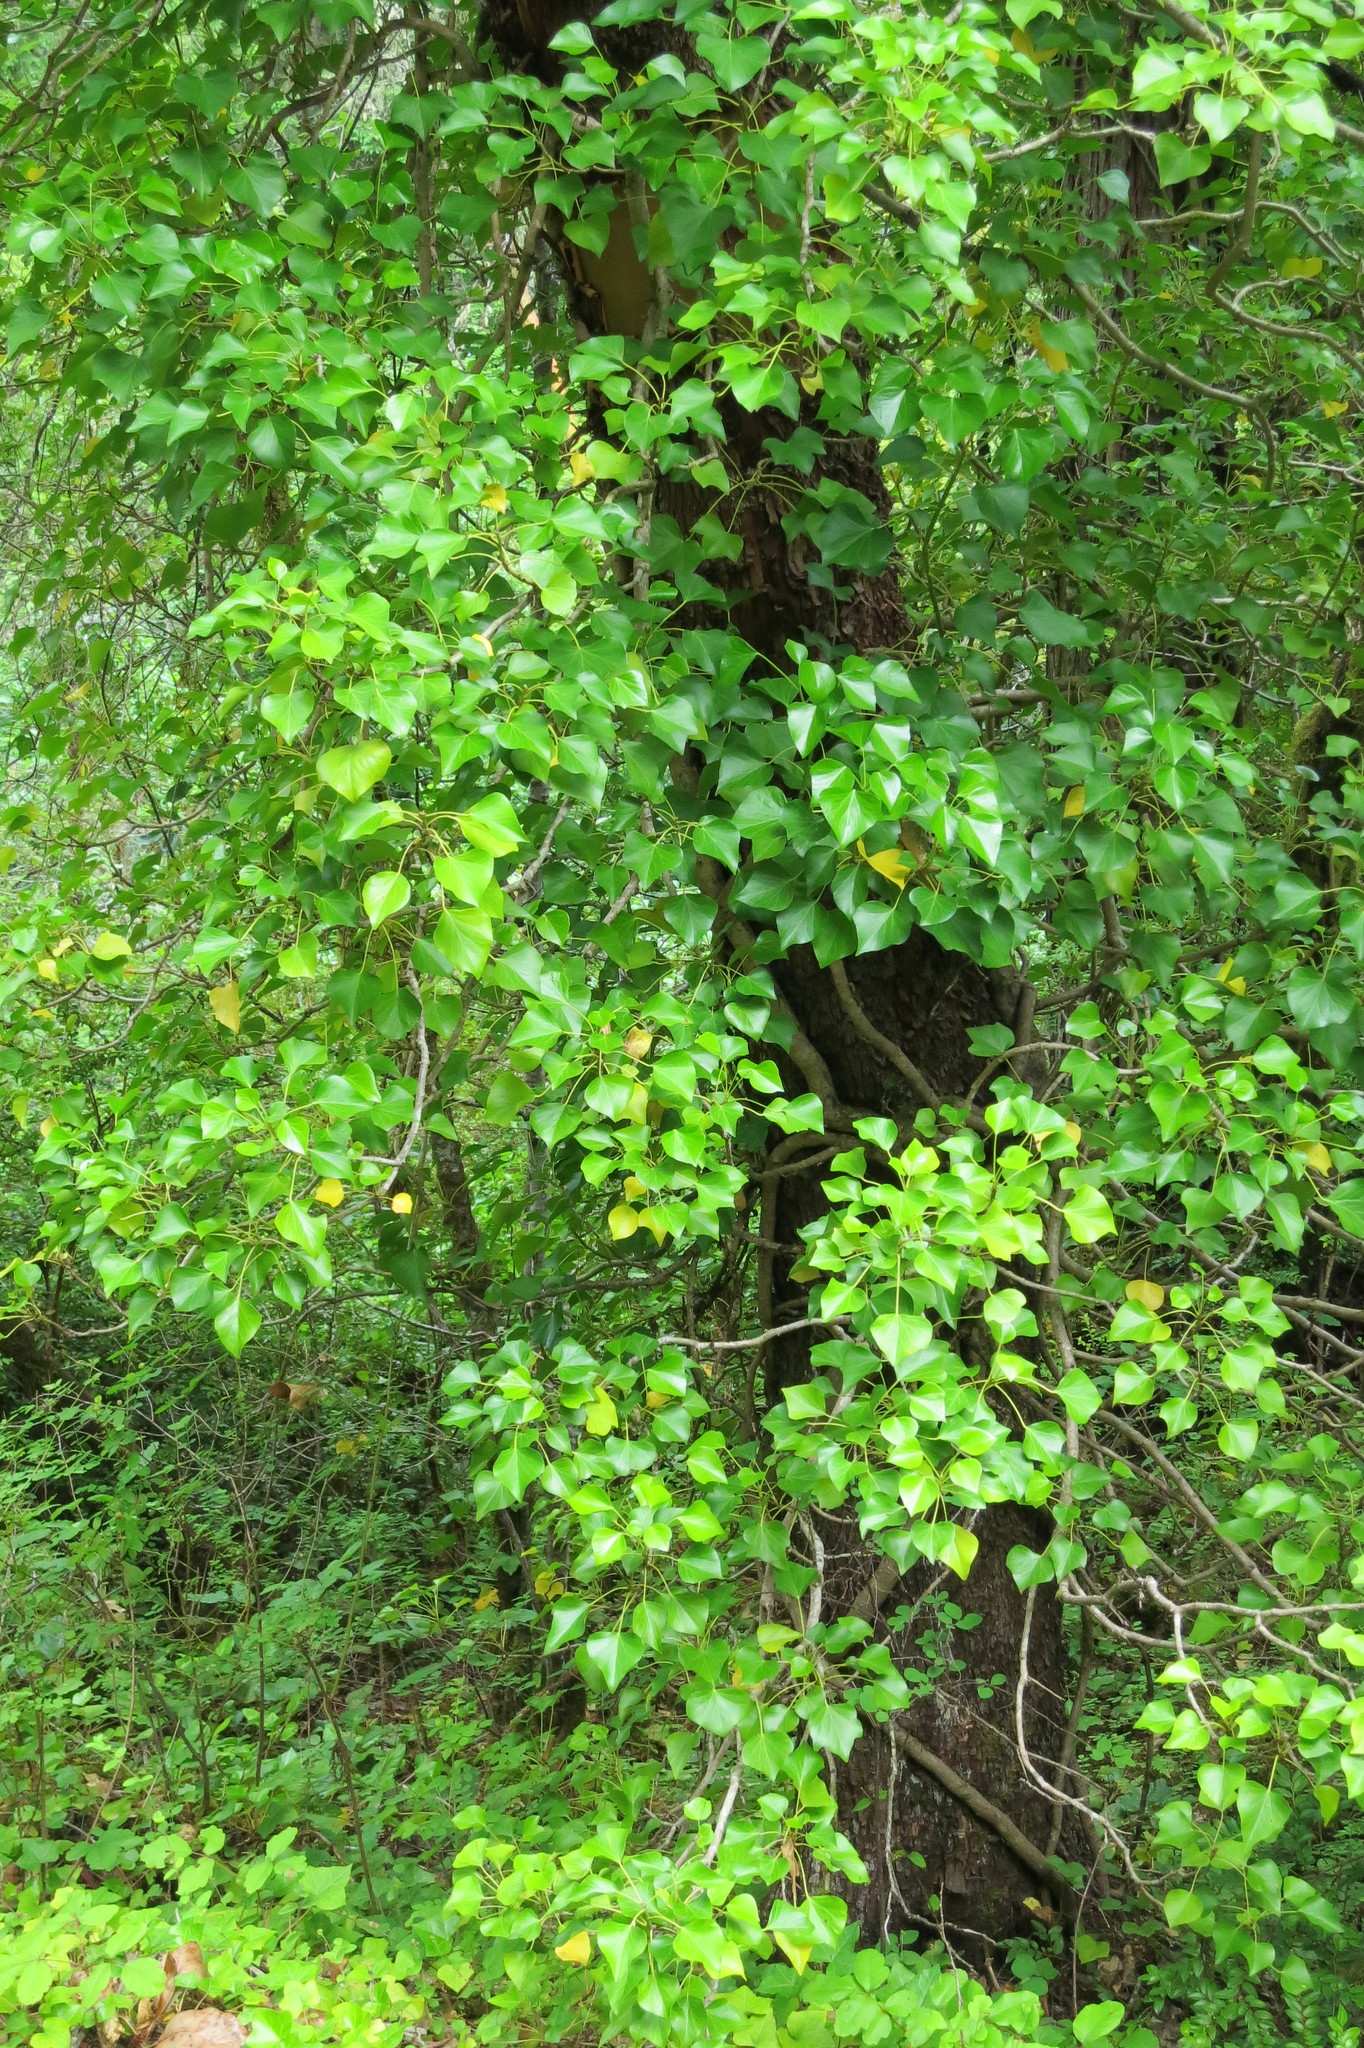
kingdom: Plantae
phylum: Tracheophyta
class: Magnoliopsida
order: Apiales
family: Araliaceae
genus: Hedera
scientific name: Hedera hibernica
